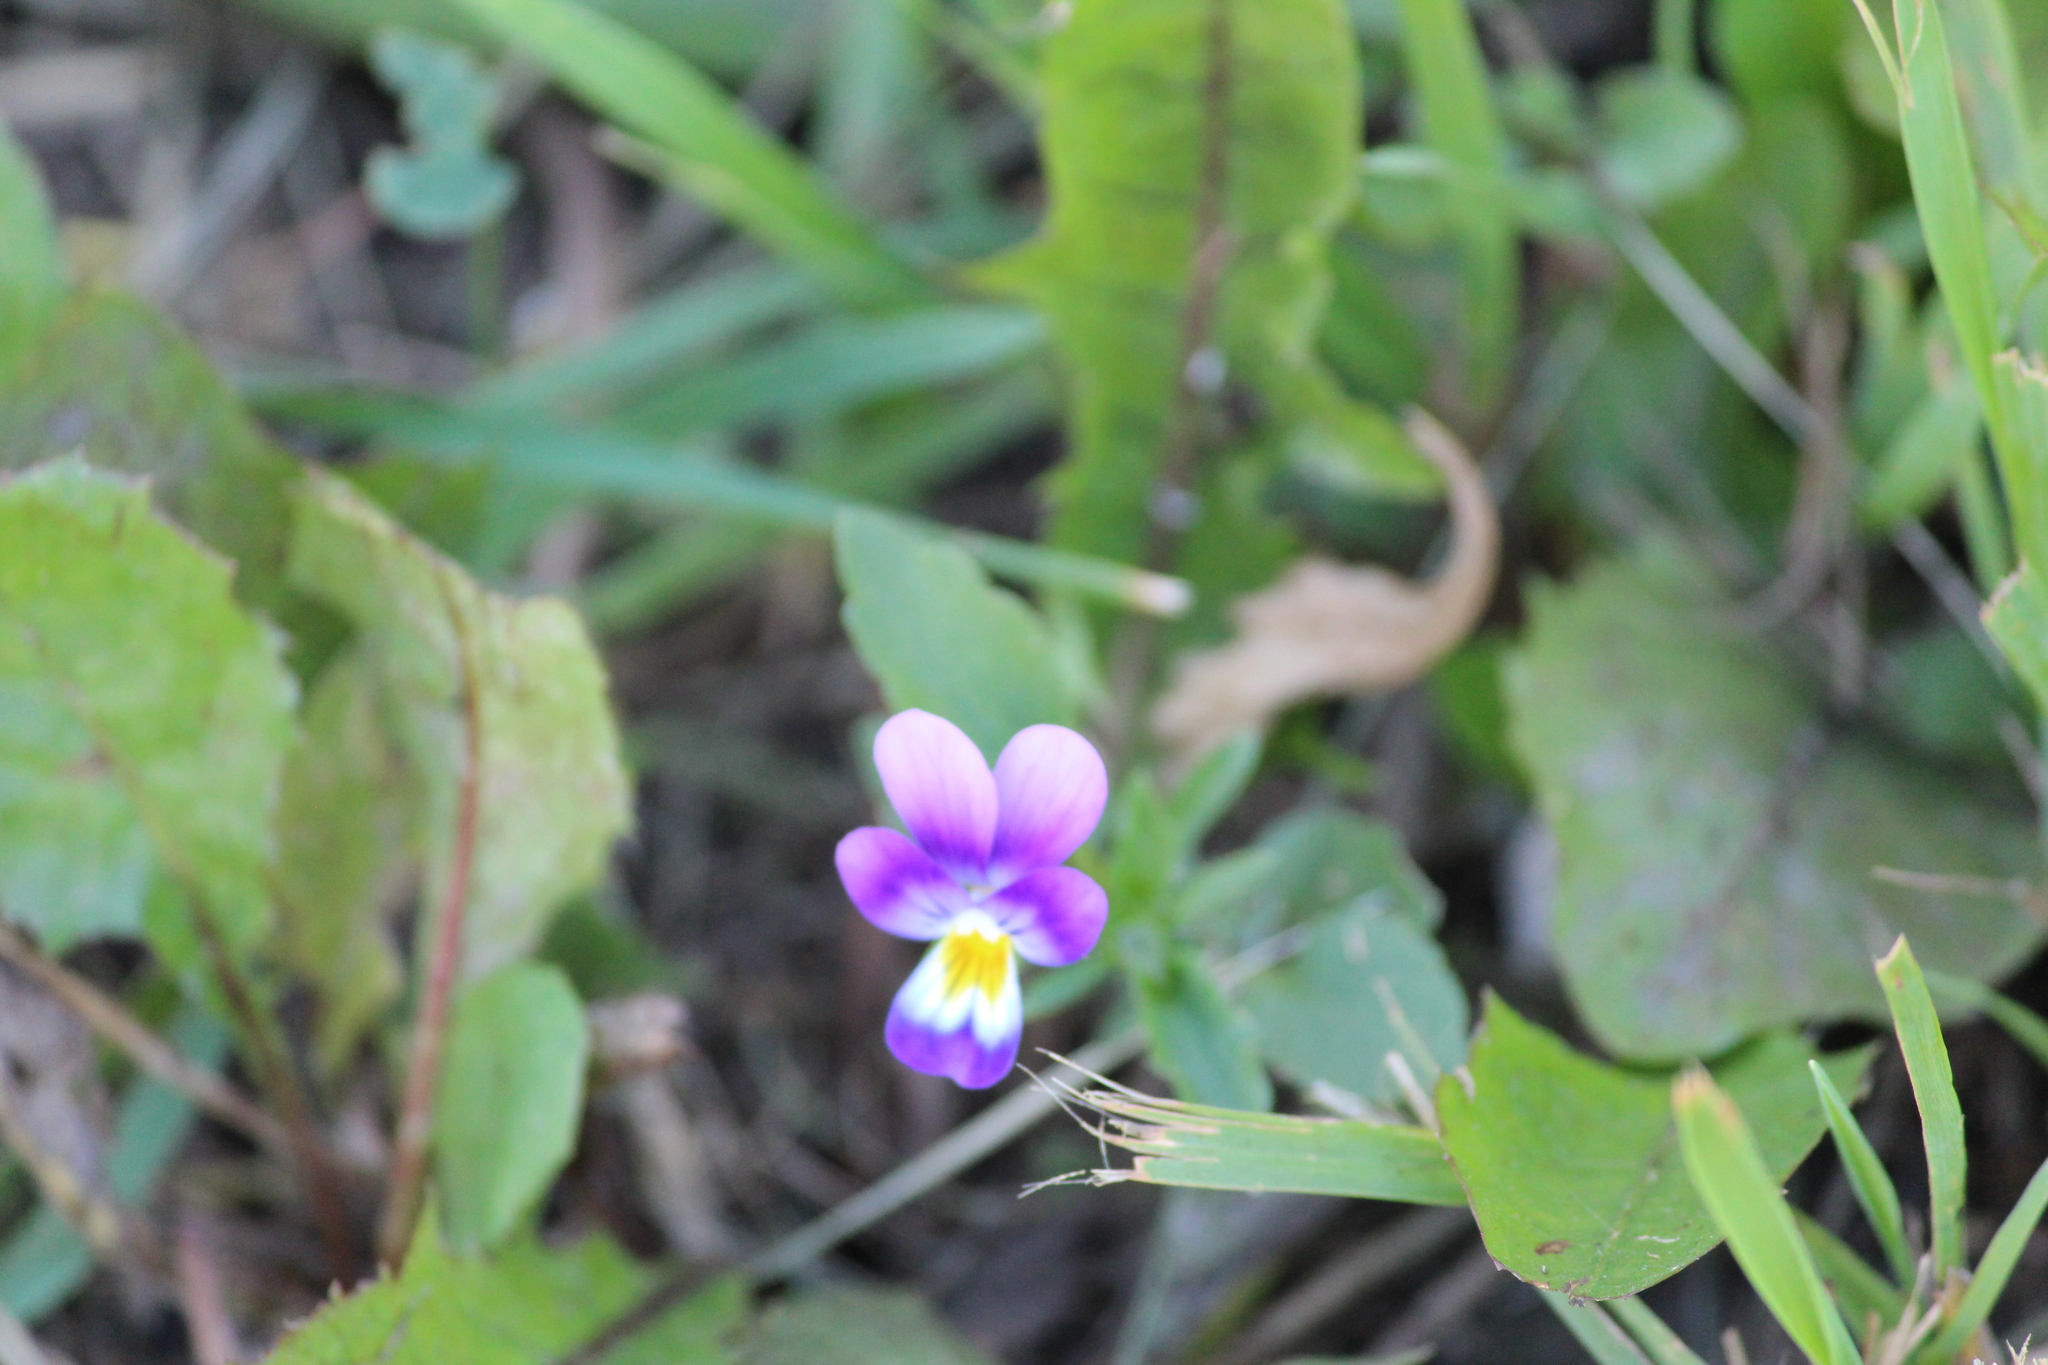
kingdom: Plantae
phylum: Tracheophyta
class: Magnoliopsida
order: Malpighiales
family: Violaceae
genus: Viola
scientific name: Viola tricolor
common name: Pansy
